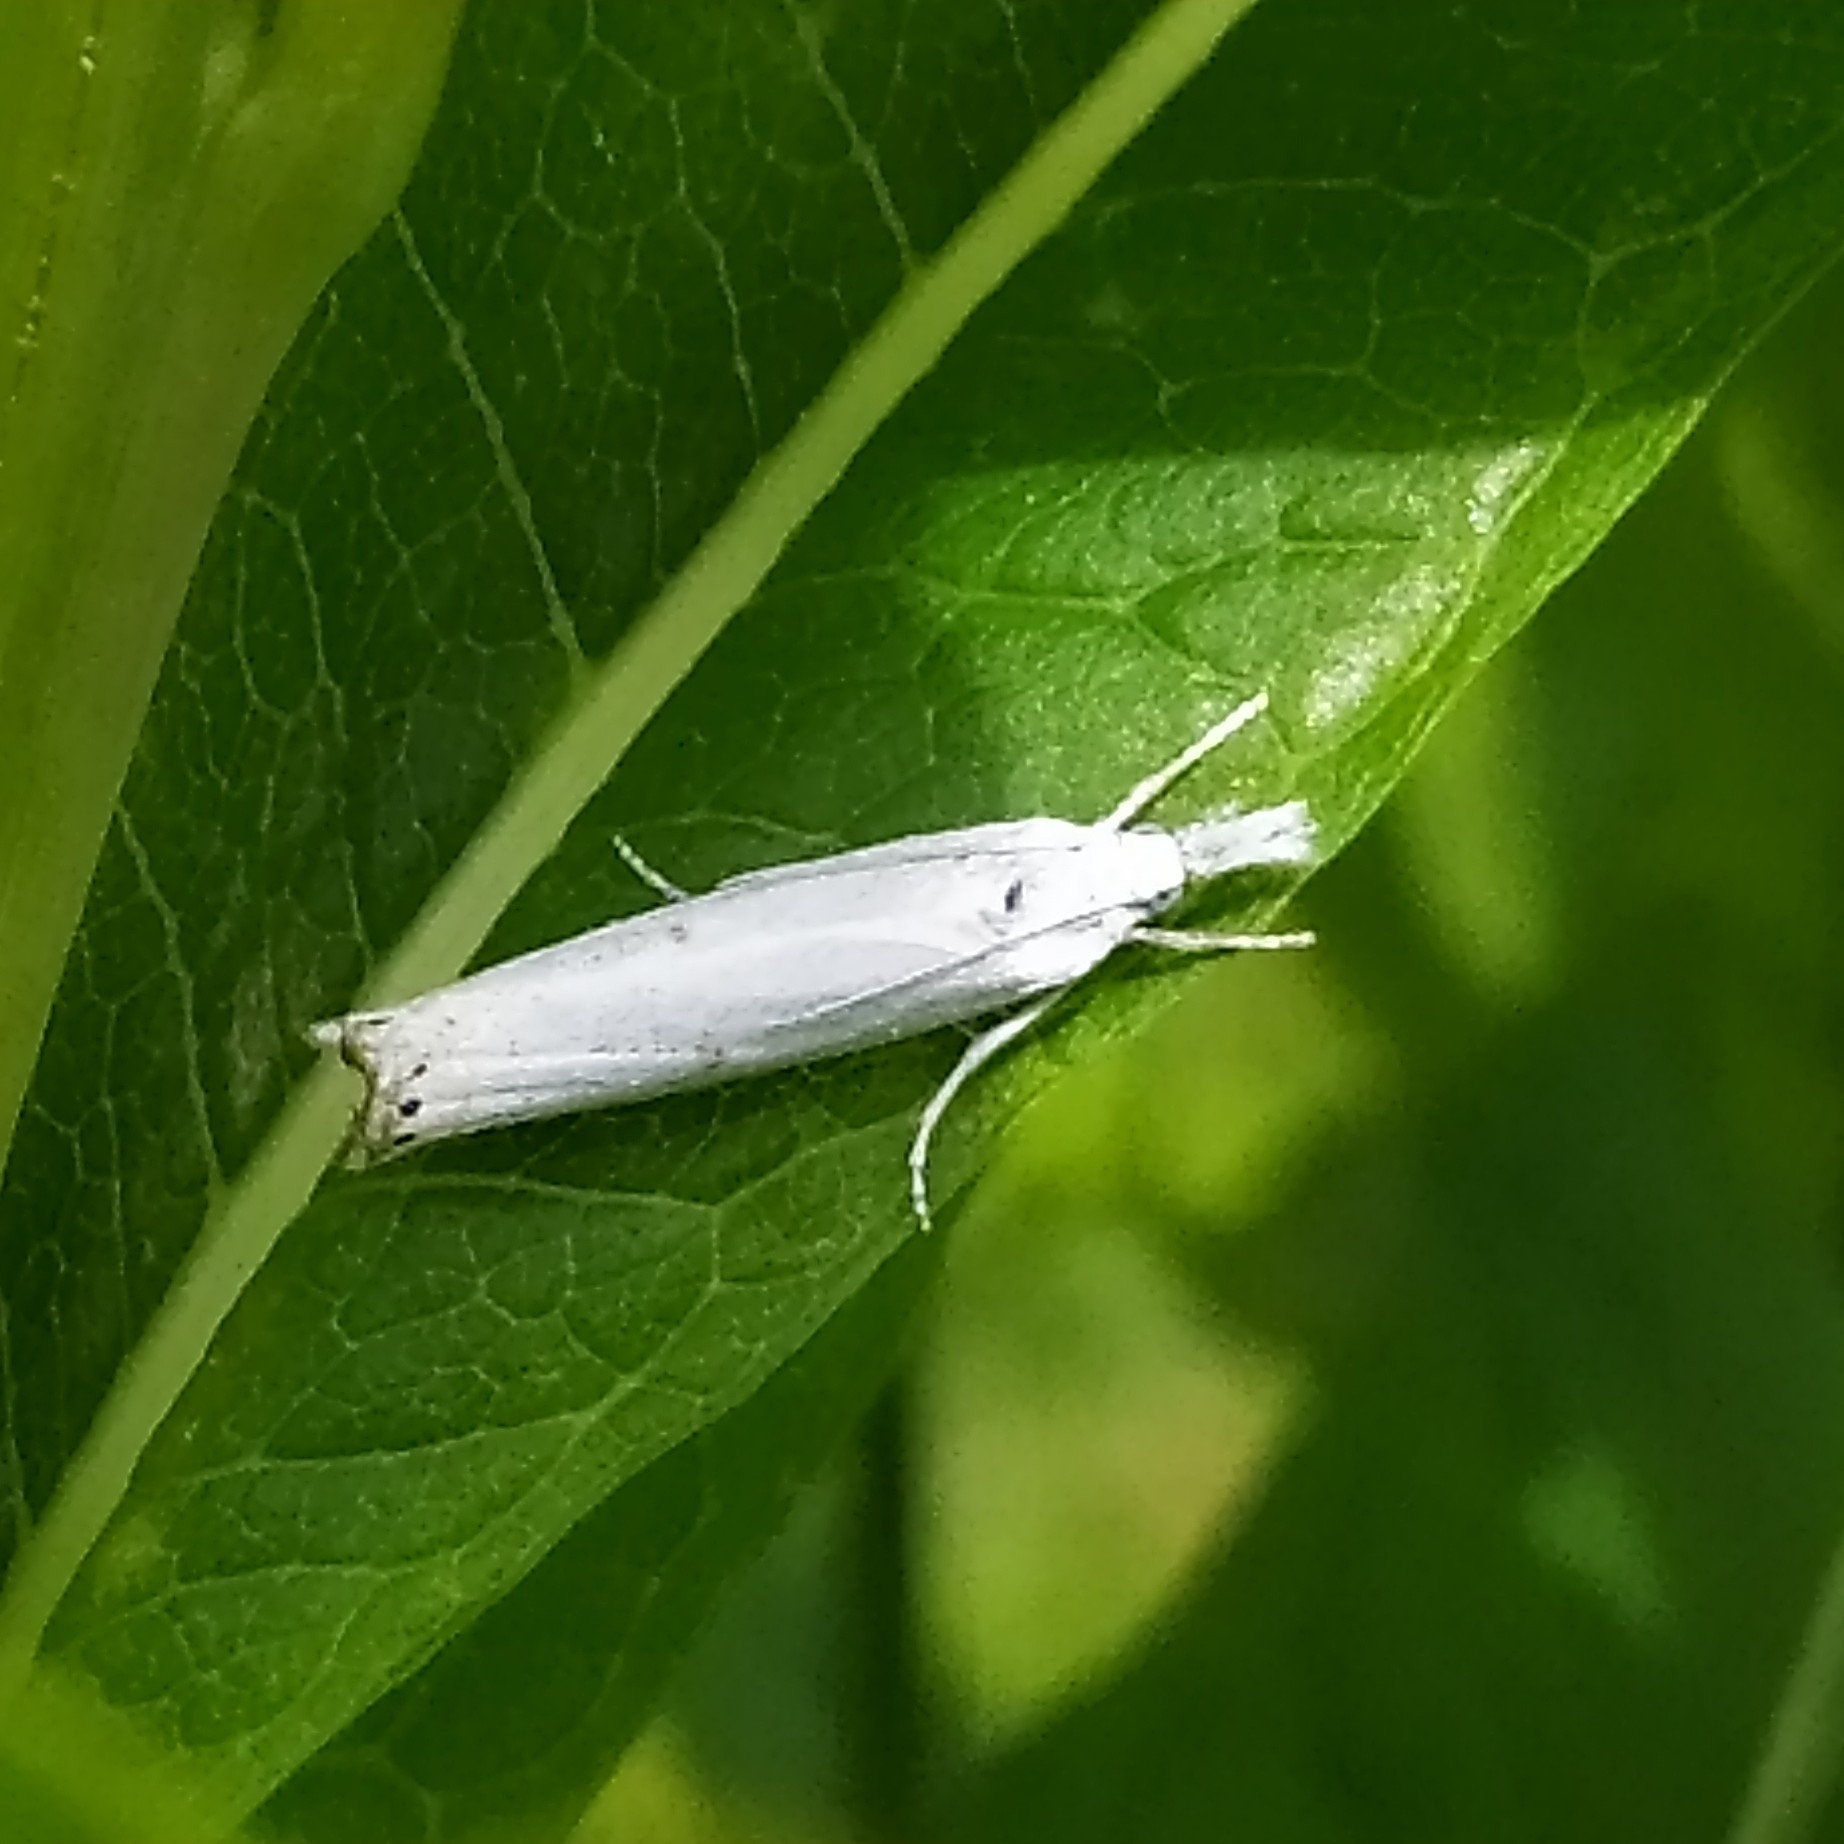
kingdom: Animalia
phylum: Arthropoda
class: Insecta
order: Lepidoptera
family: Crambidae
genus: Crambus
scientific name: Crambus nemorella
